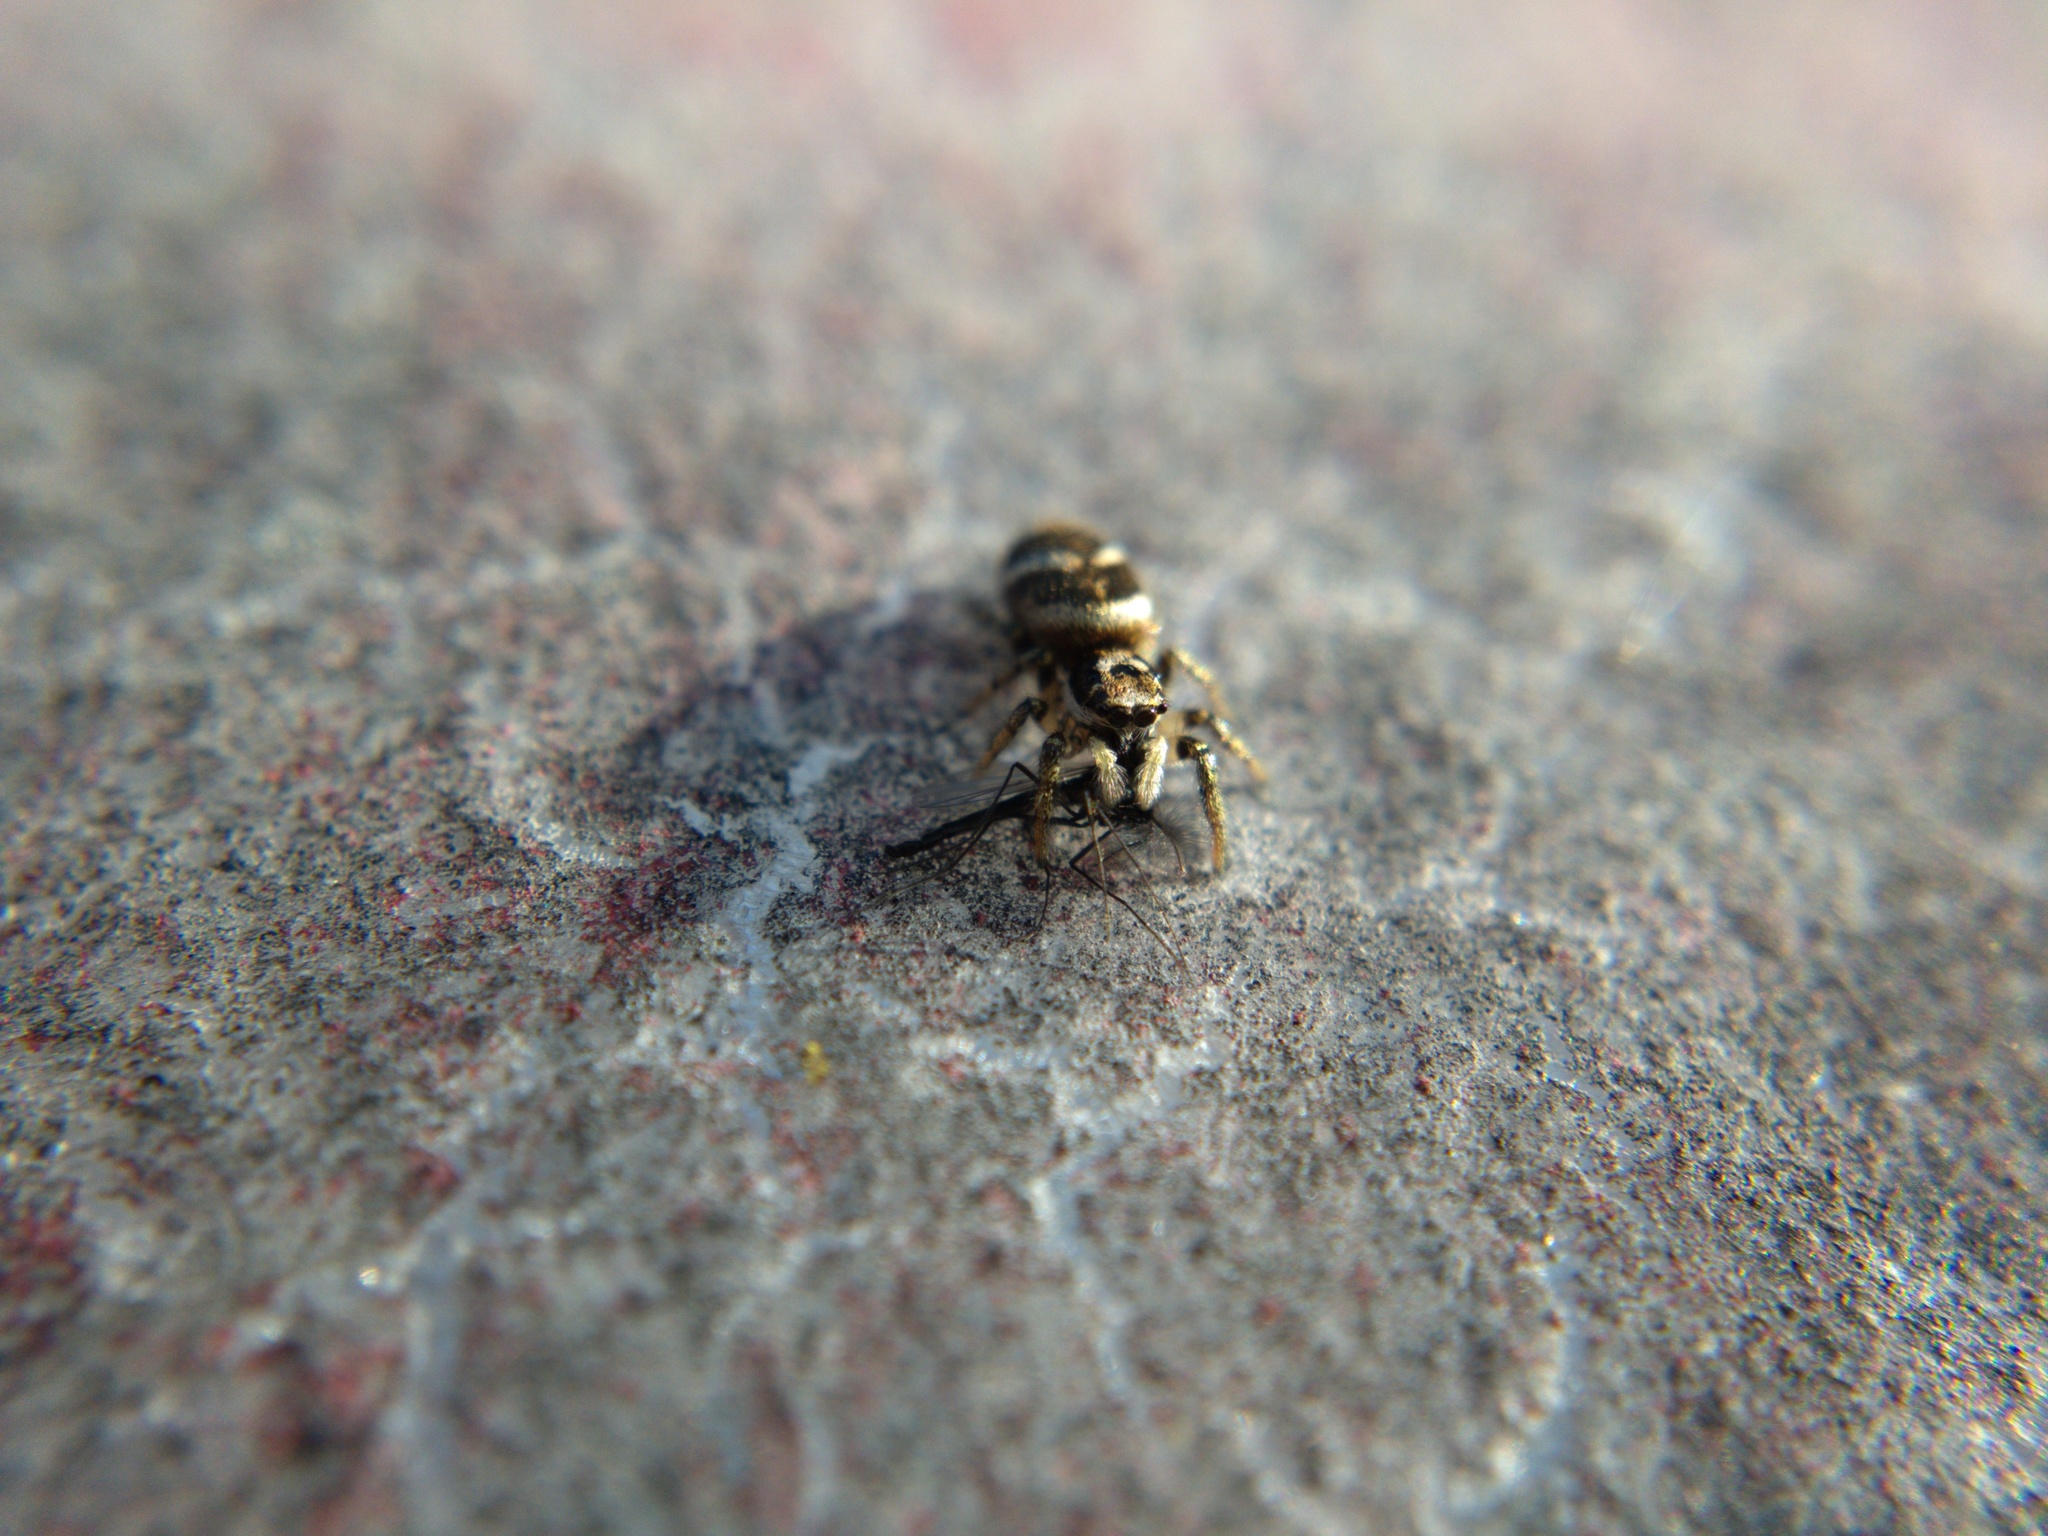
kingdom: Animalia
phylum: Arthropoda
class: Arachnida
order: Araneae
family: Salticidae
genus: Salticus
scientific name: Salticus scenicus
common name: Zebra jumper
